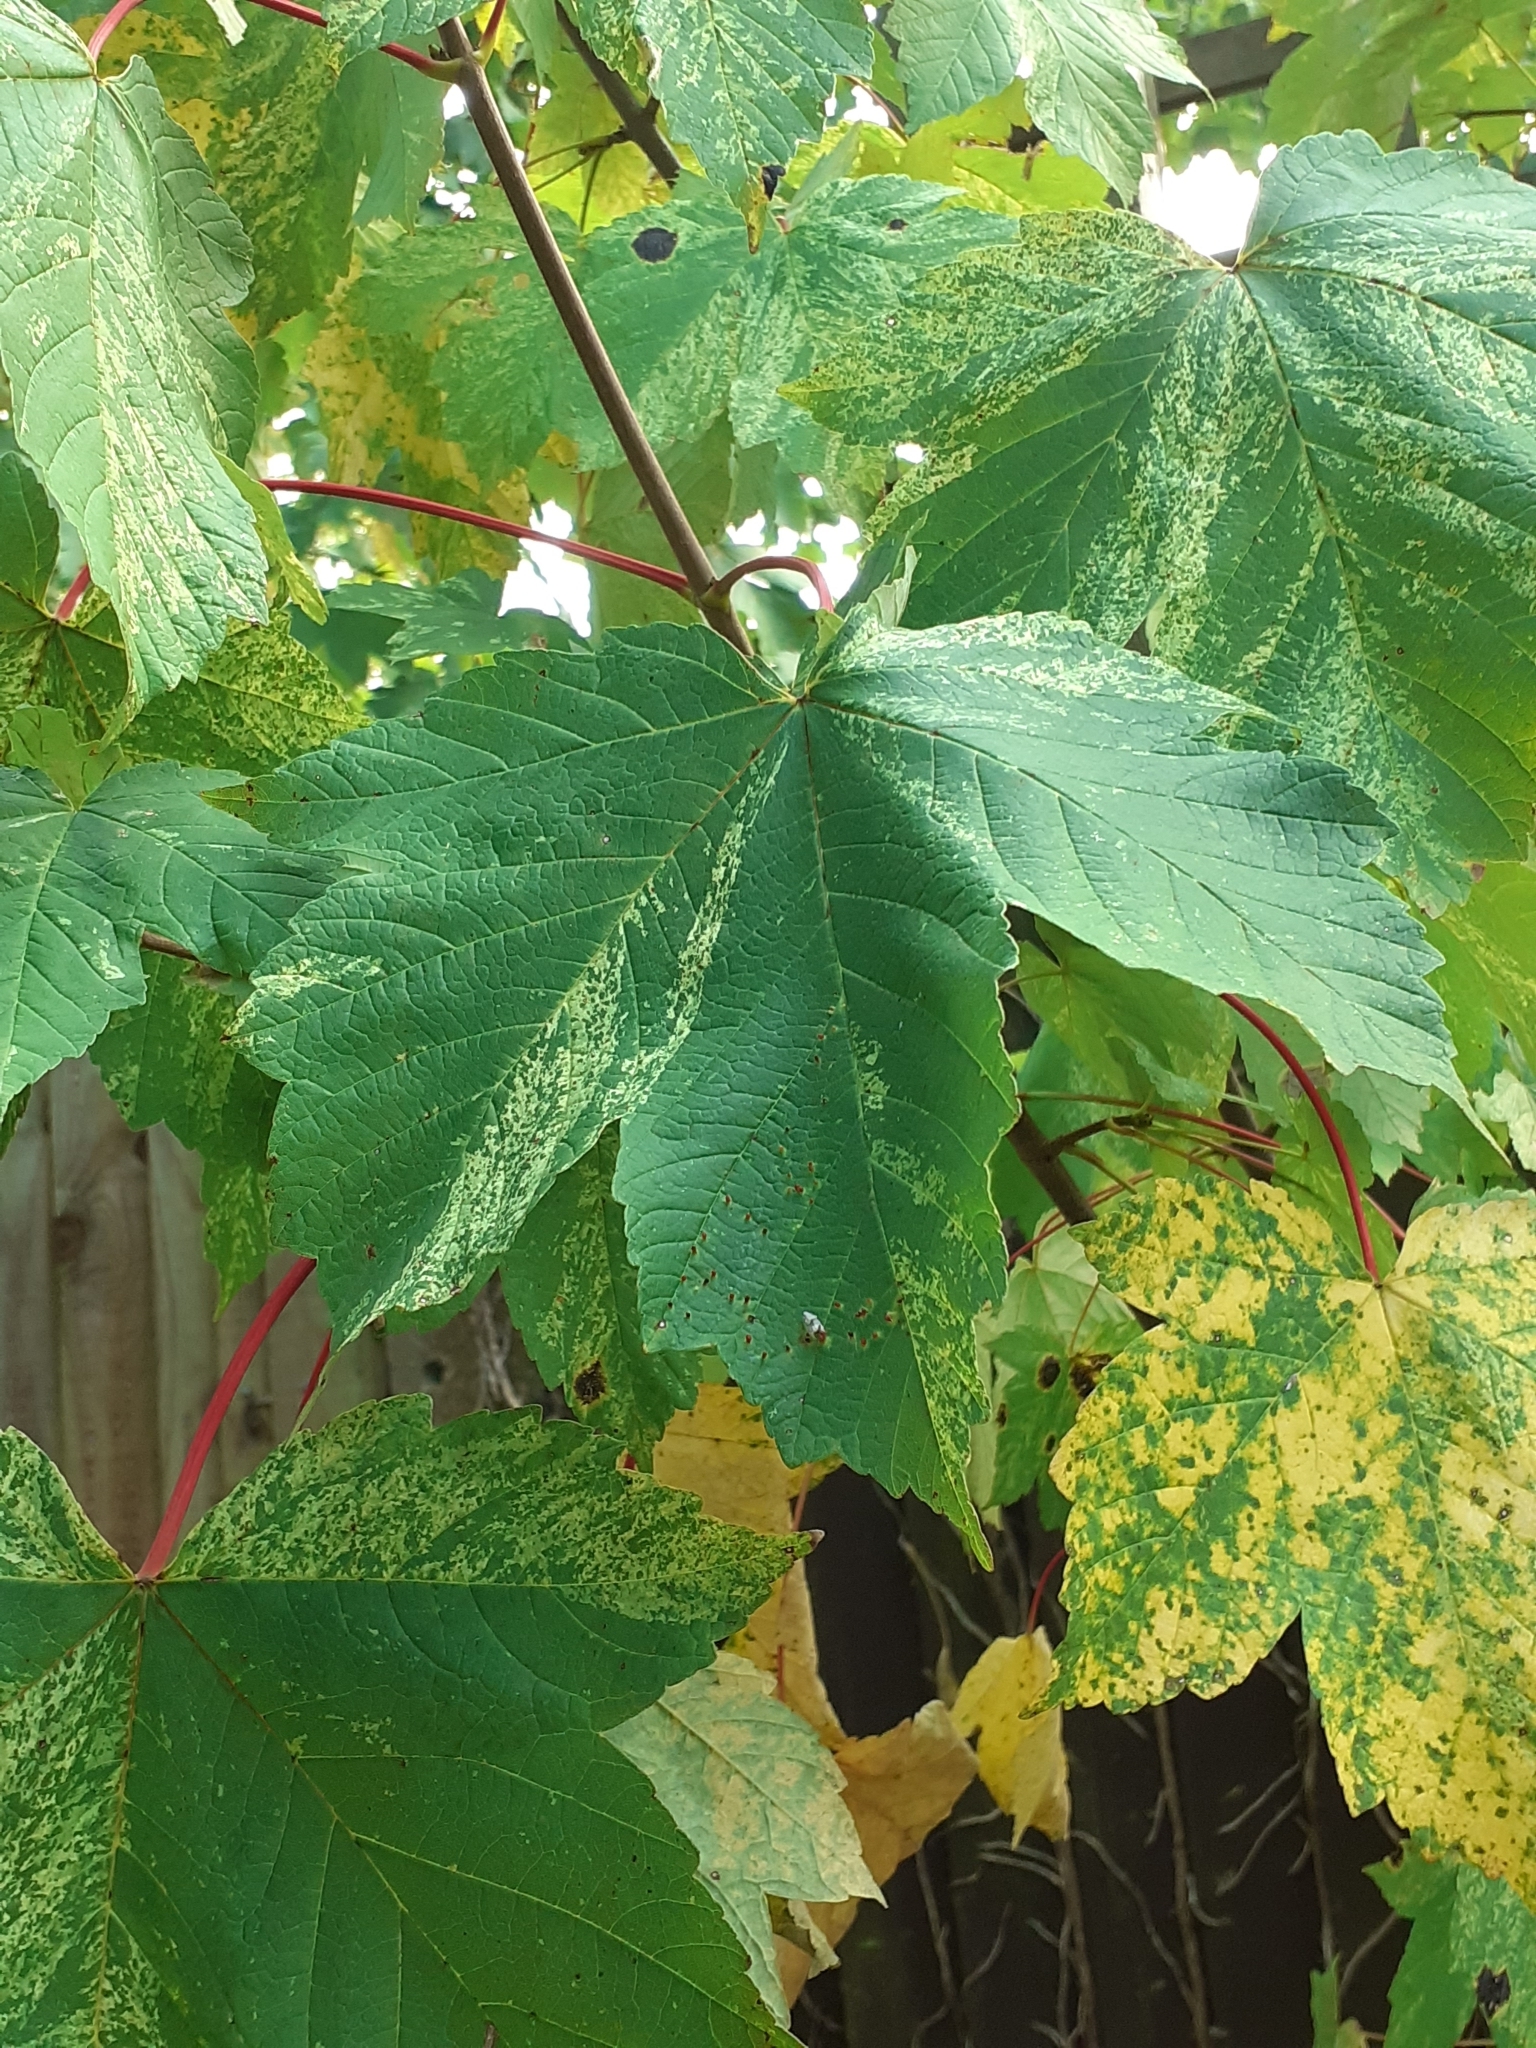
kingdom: Plantae
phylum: Tracheophyta
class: Magnoliopsida
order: Sapindales
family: Sapindaceae
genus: Acer
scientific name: Acer pseudoplatanus
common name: Sycamore
